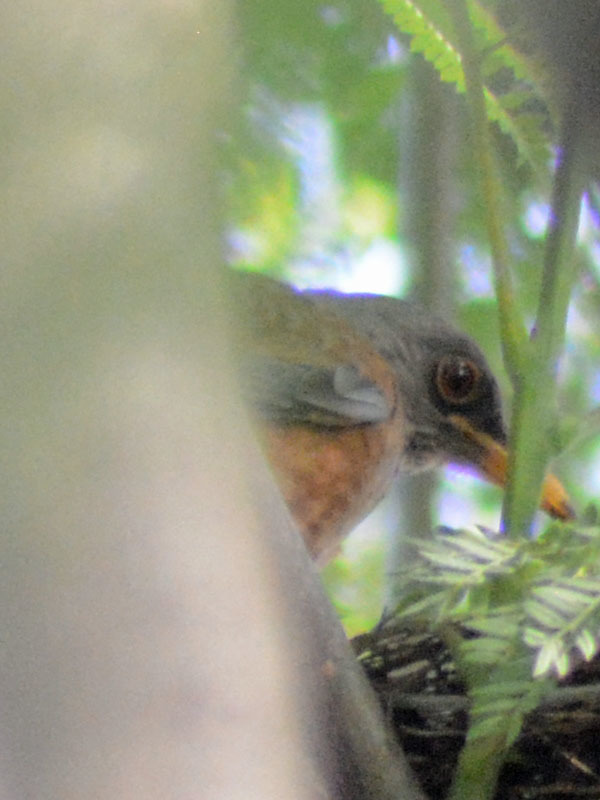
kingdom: Animalia
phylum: Chordata
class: Aves
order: Passeriformes
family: Turdidae
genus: Turdus
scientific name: Turdus rufopalliatus
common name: Rufous-backed robin
